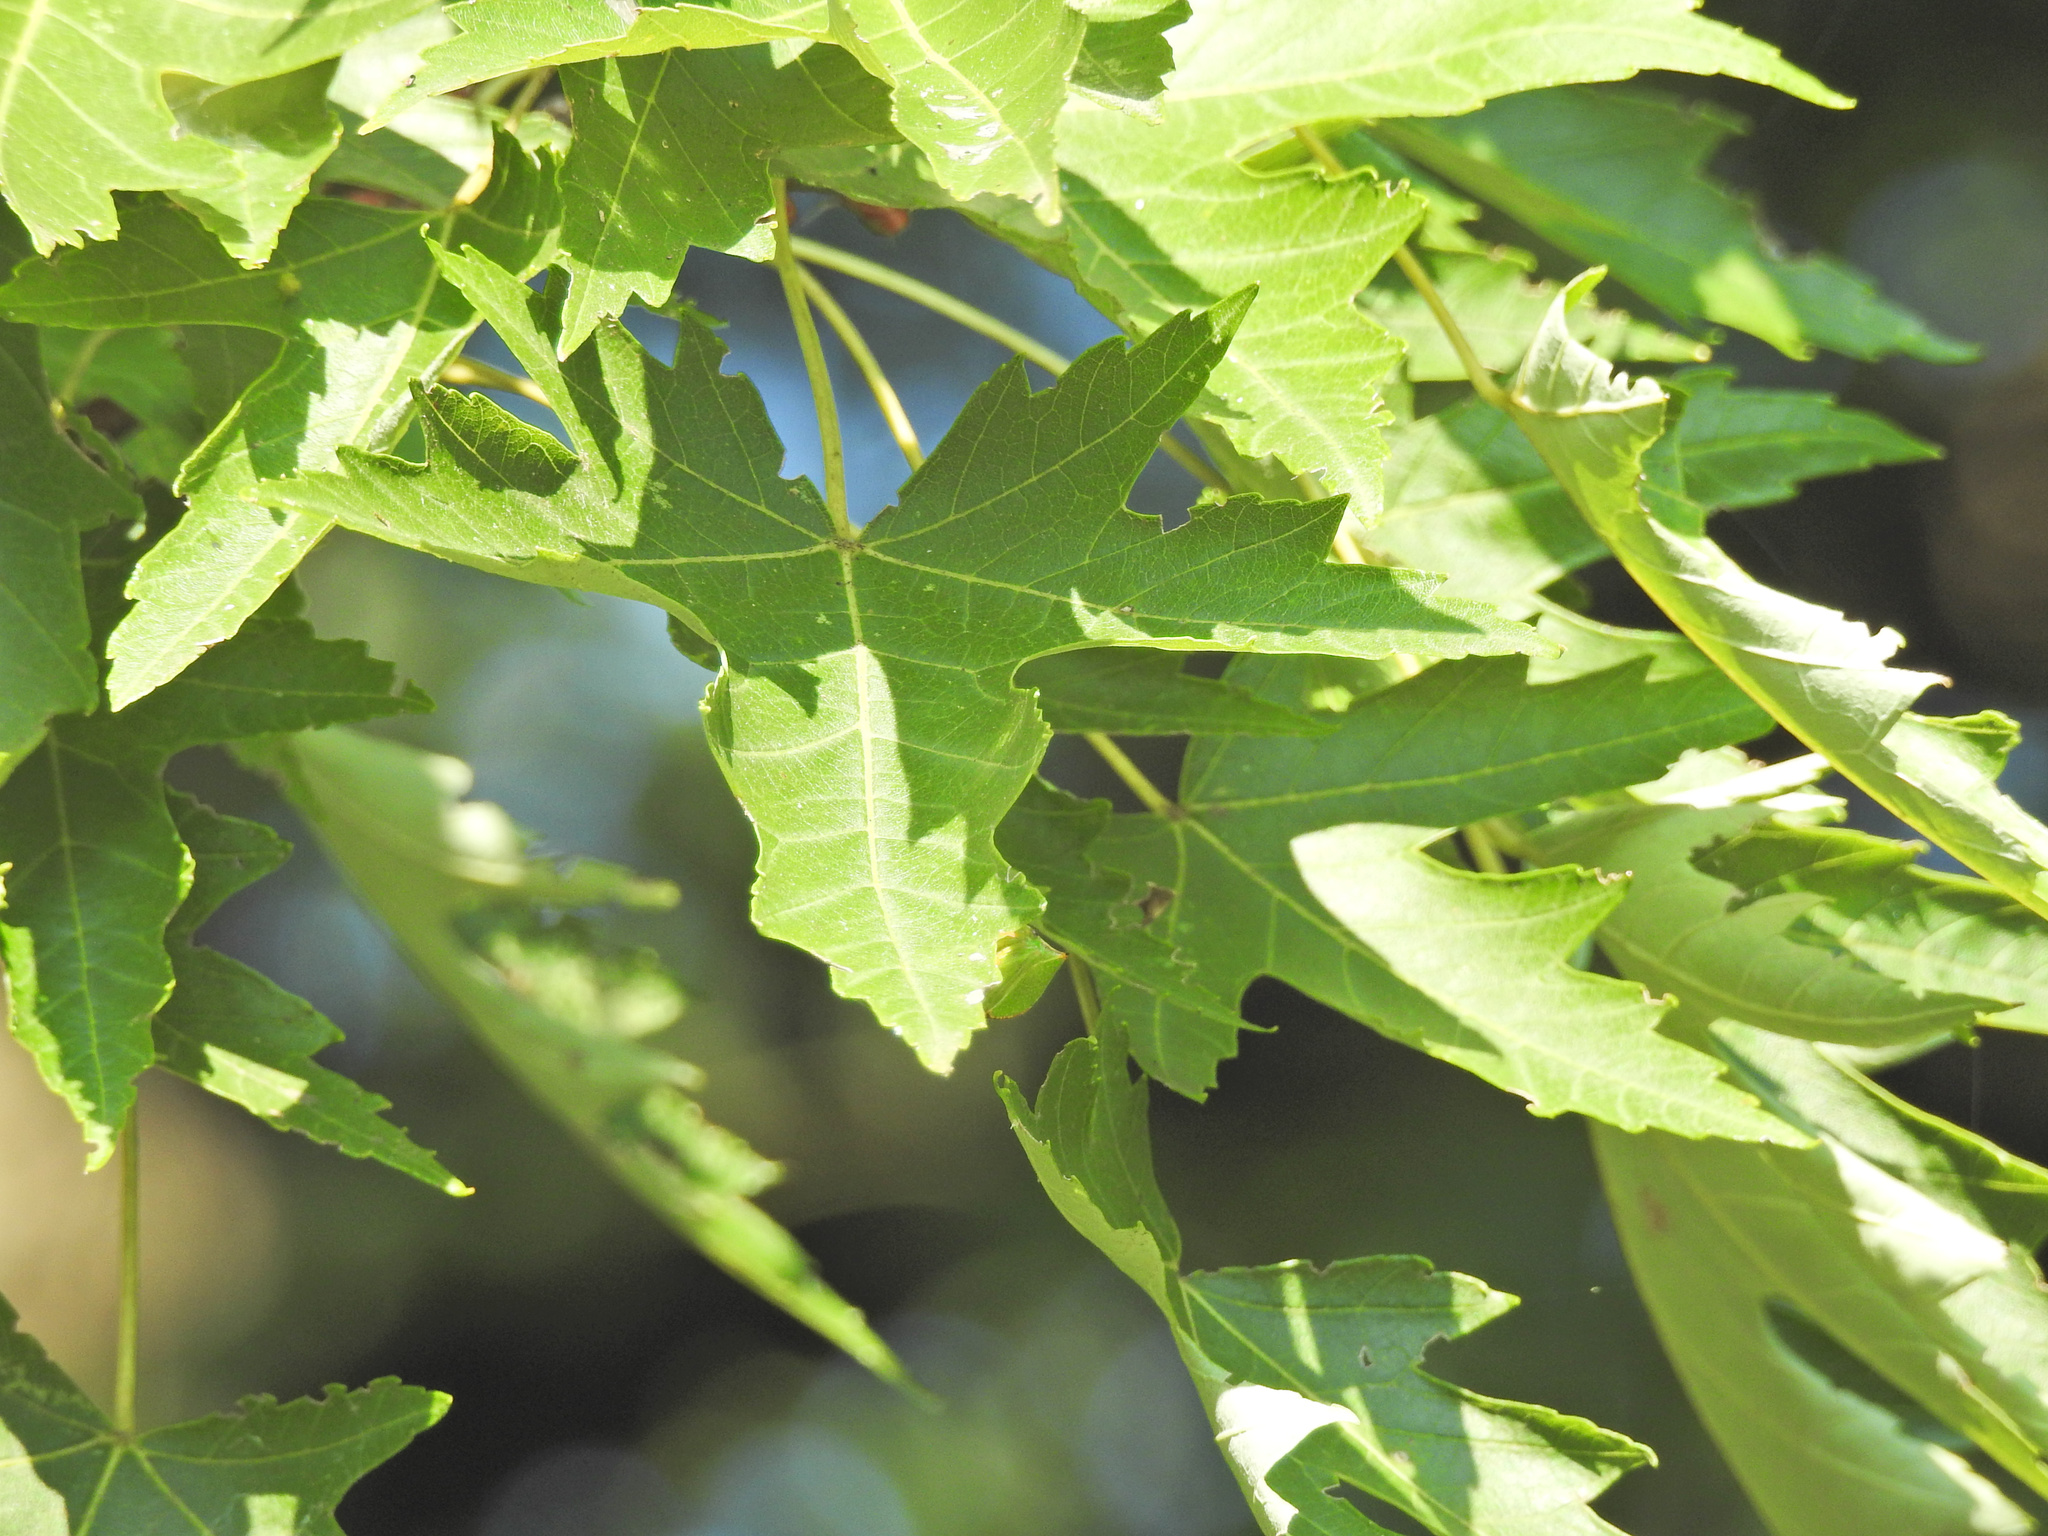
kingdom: Plantae
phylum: Tracheophyta
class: Magnoliopsida
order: Sapindales
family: Sapindaceae
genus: Acer
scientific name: Acer saccharinum
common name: Silver maple
